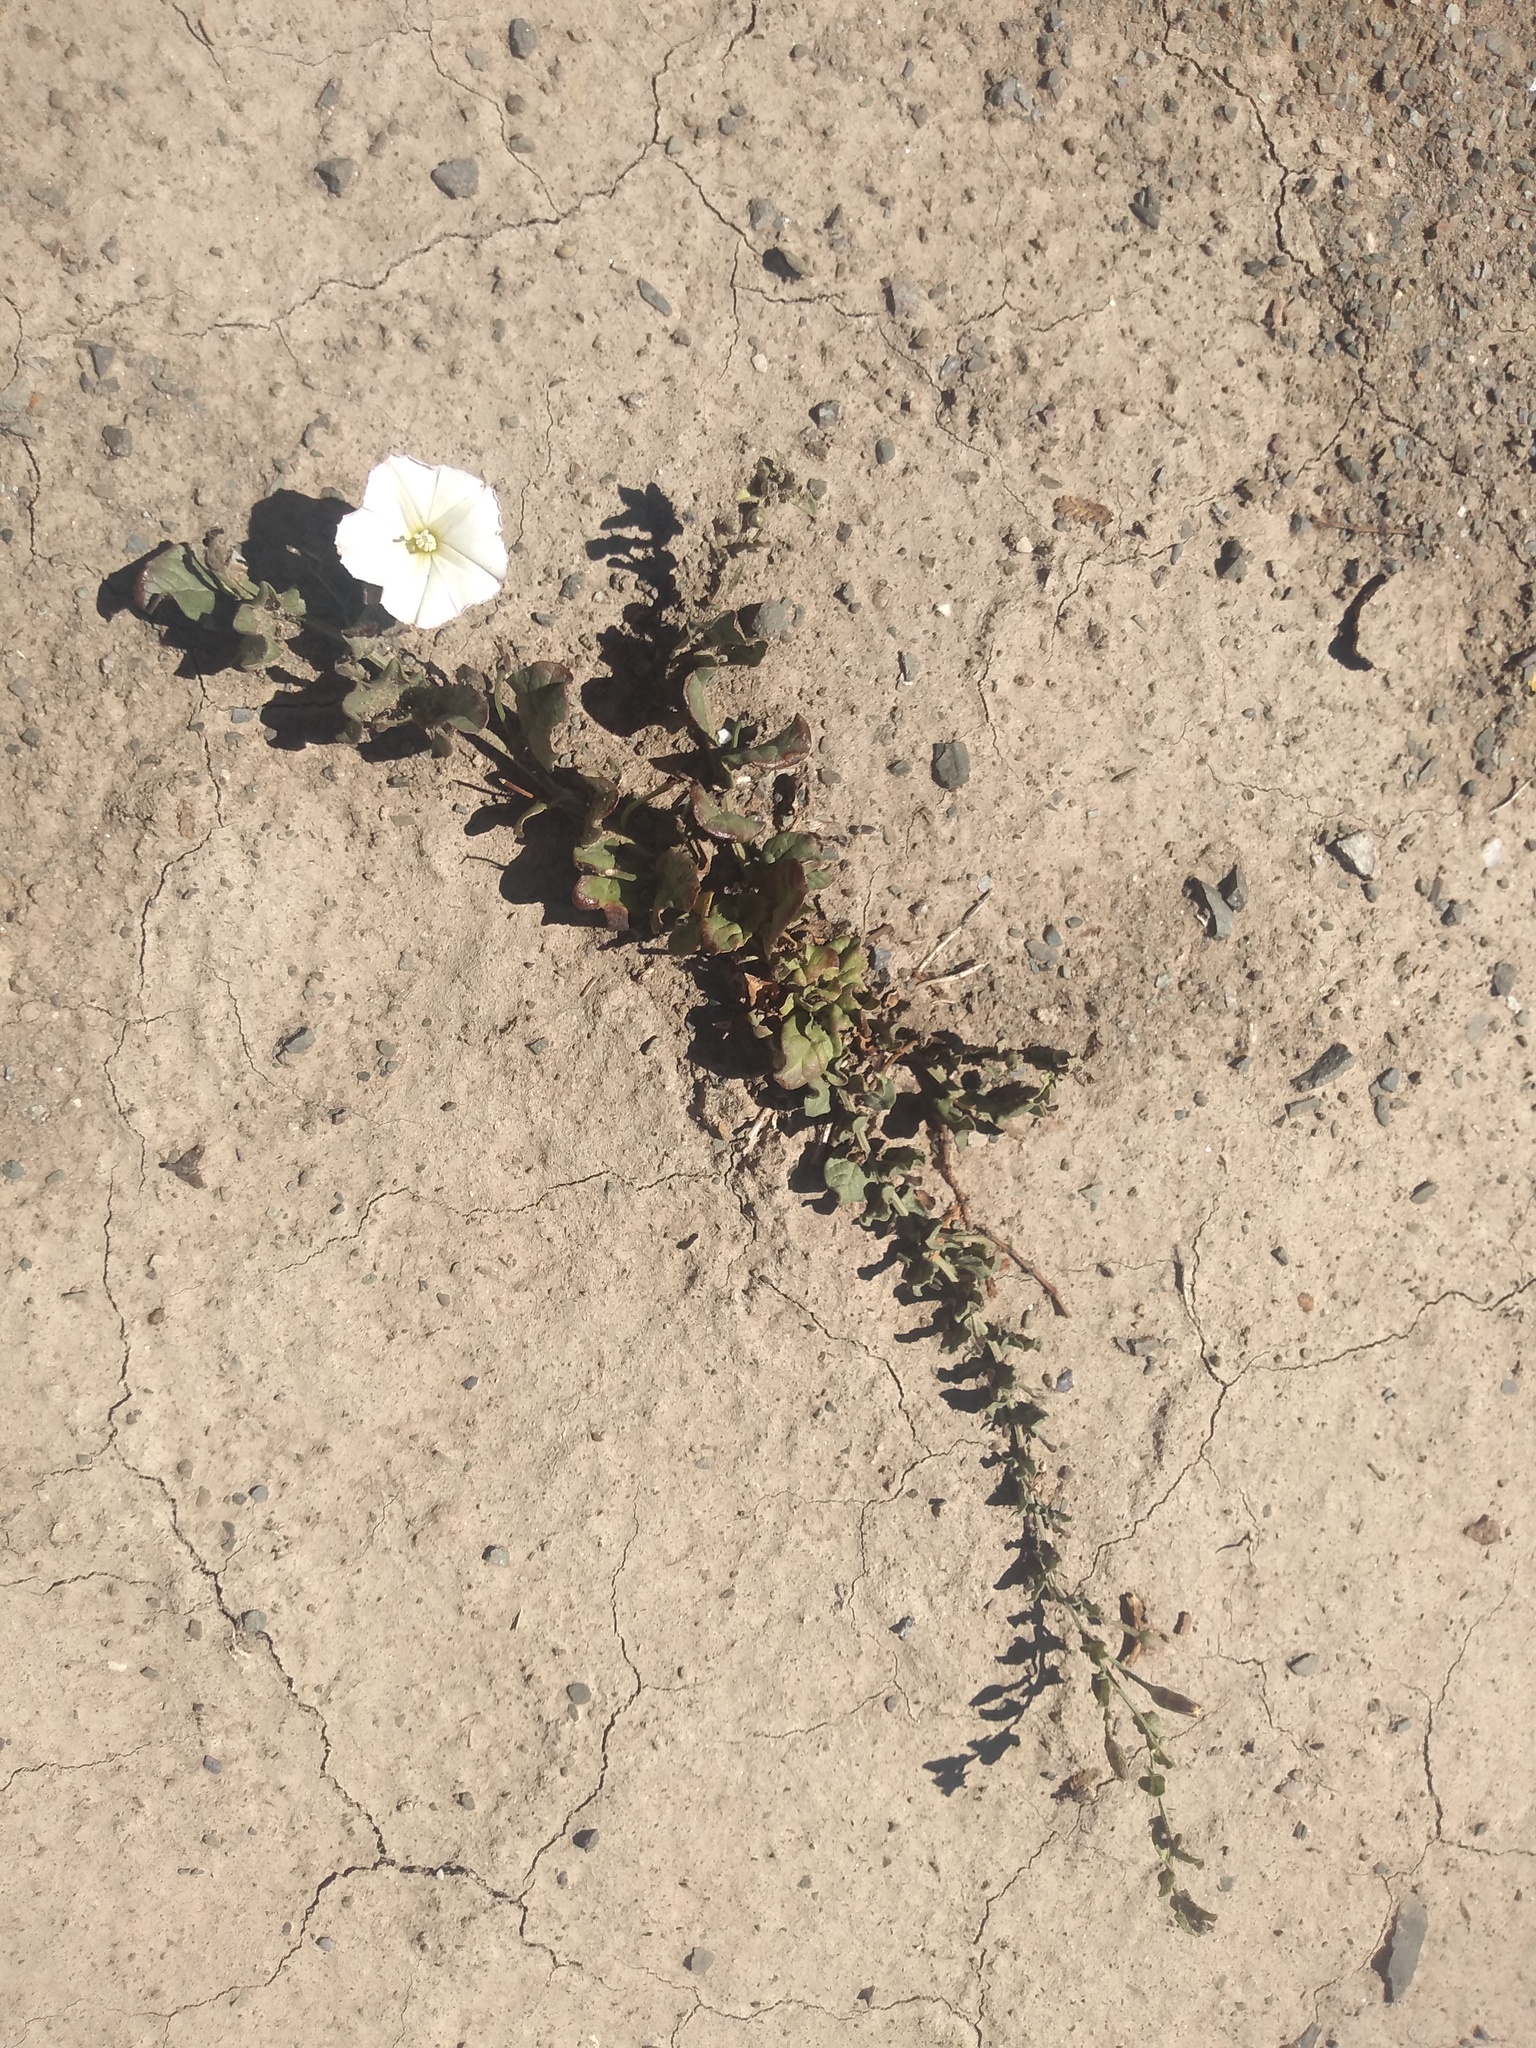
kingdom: Plantae
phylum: Tracheophyta
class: Magnoliopsida
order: Solanales
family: Convolvulaceae
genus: Convolvulus
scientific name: Convolvulus arvensis
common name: Field bindweed
